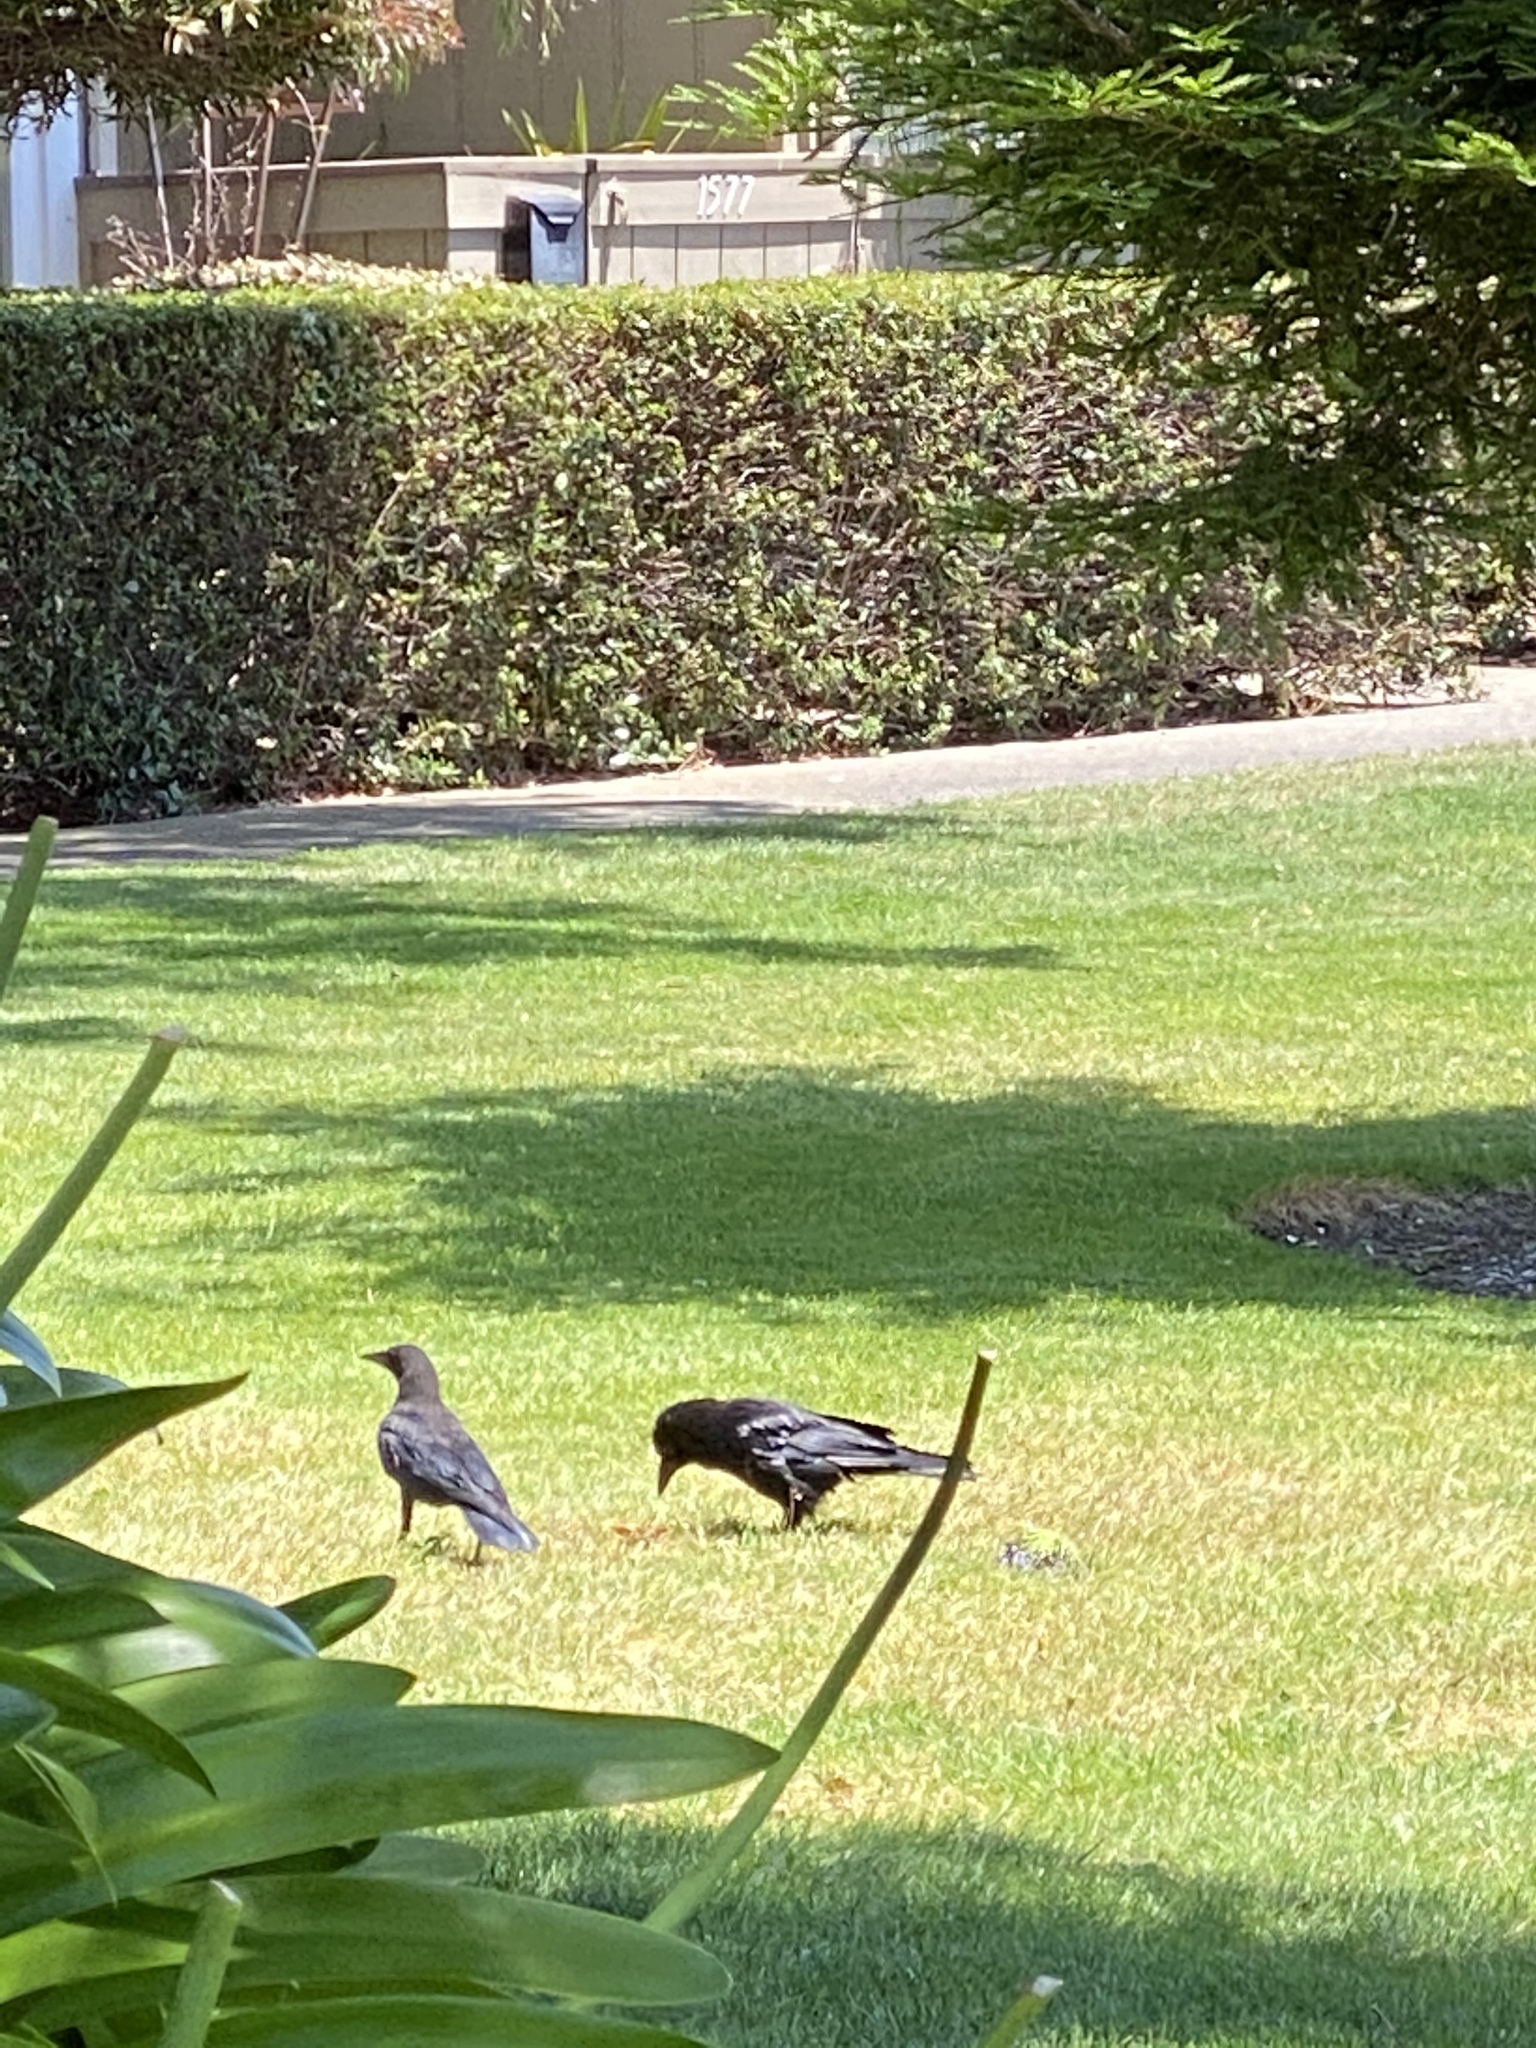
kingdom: Animalia
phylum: Chordata
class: Aves
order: Passeriformes
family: Corvidae
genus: Corvus
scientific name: Corvus brachyrhynchos
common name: American crow
